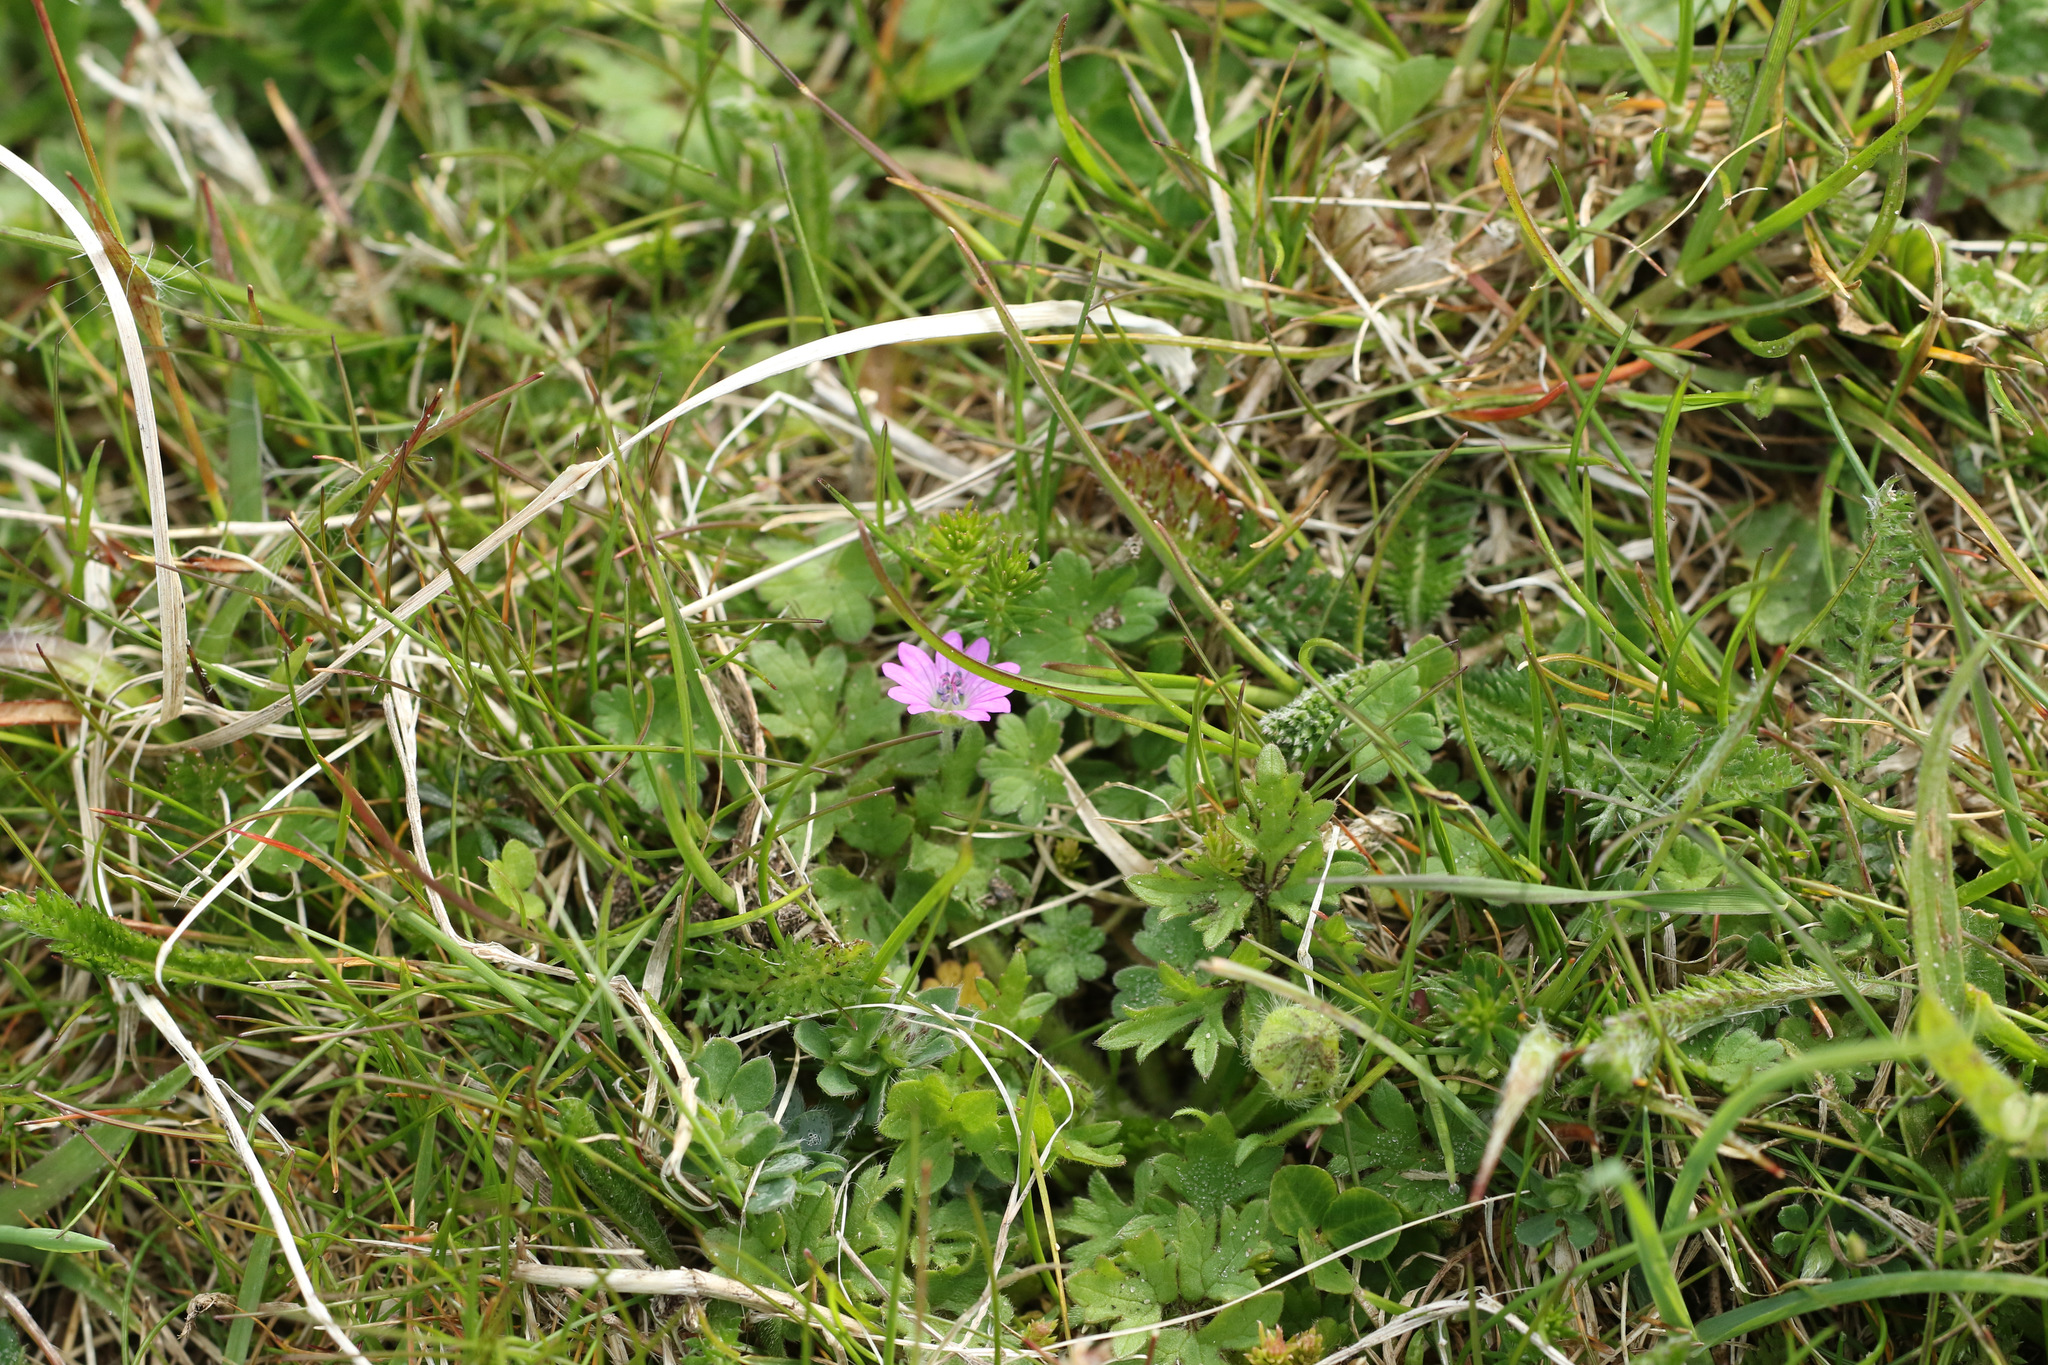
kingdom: Plantae
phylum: Tracheophyta
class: Magnoliopsida
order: Geraniales
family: Geraniaceae
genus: Geranium
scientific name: Geranium molle
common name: Dove's-foot crane's-bill
